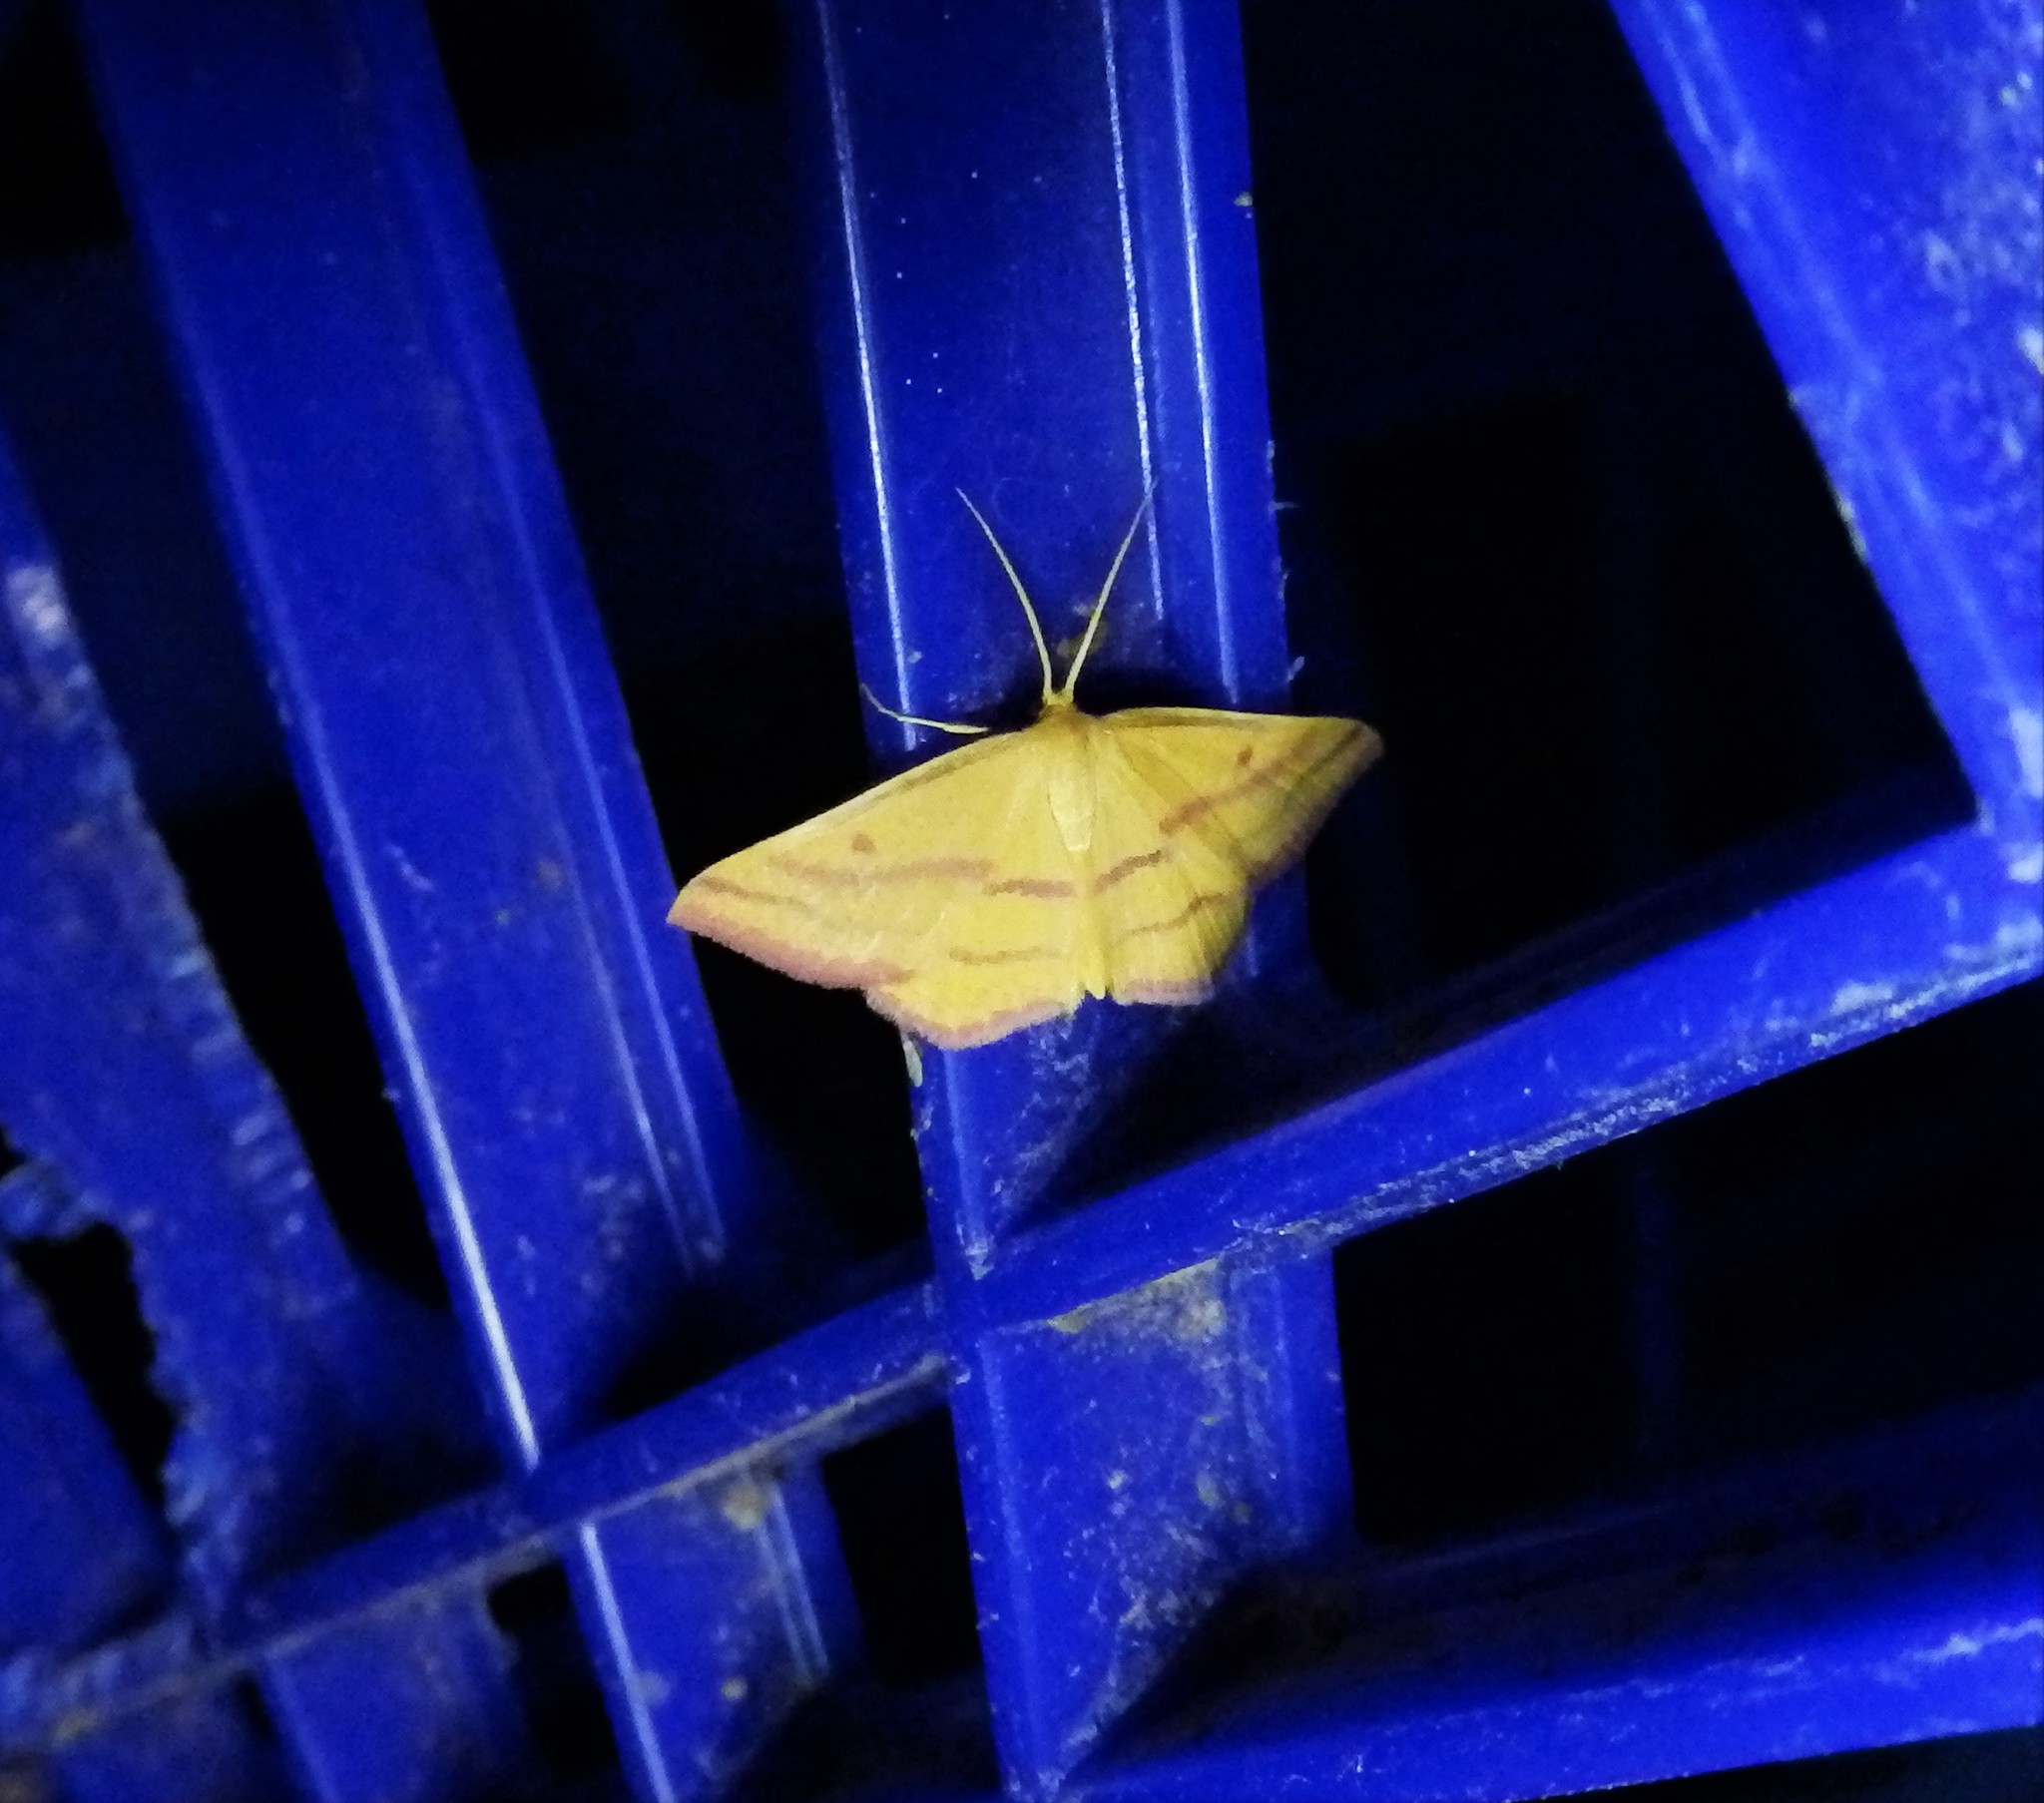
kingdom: Animalia
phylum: Arthropoda
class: Insecta
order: Lepidoptera
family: Geometridae
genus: Haematopis
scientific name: Haematopis grataria
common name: Chickweed geometer
